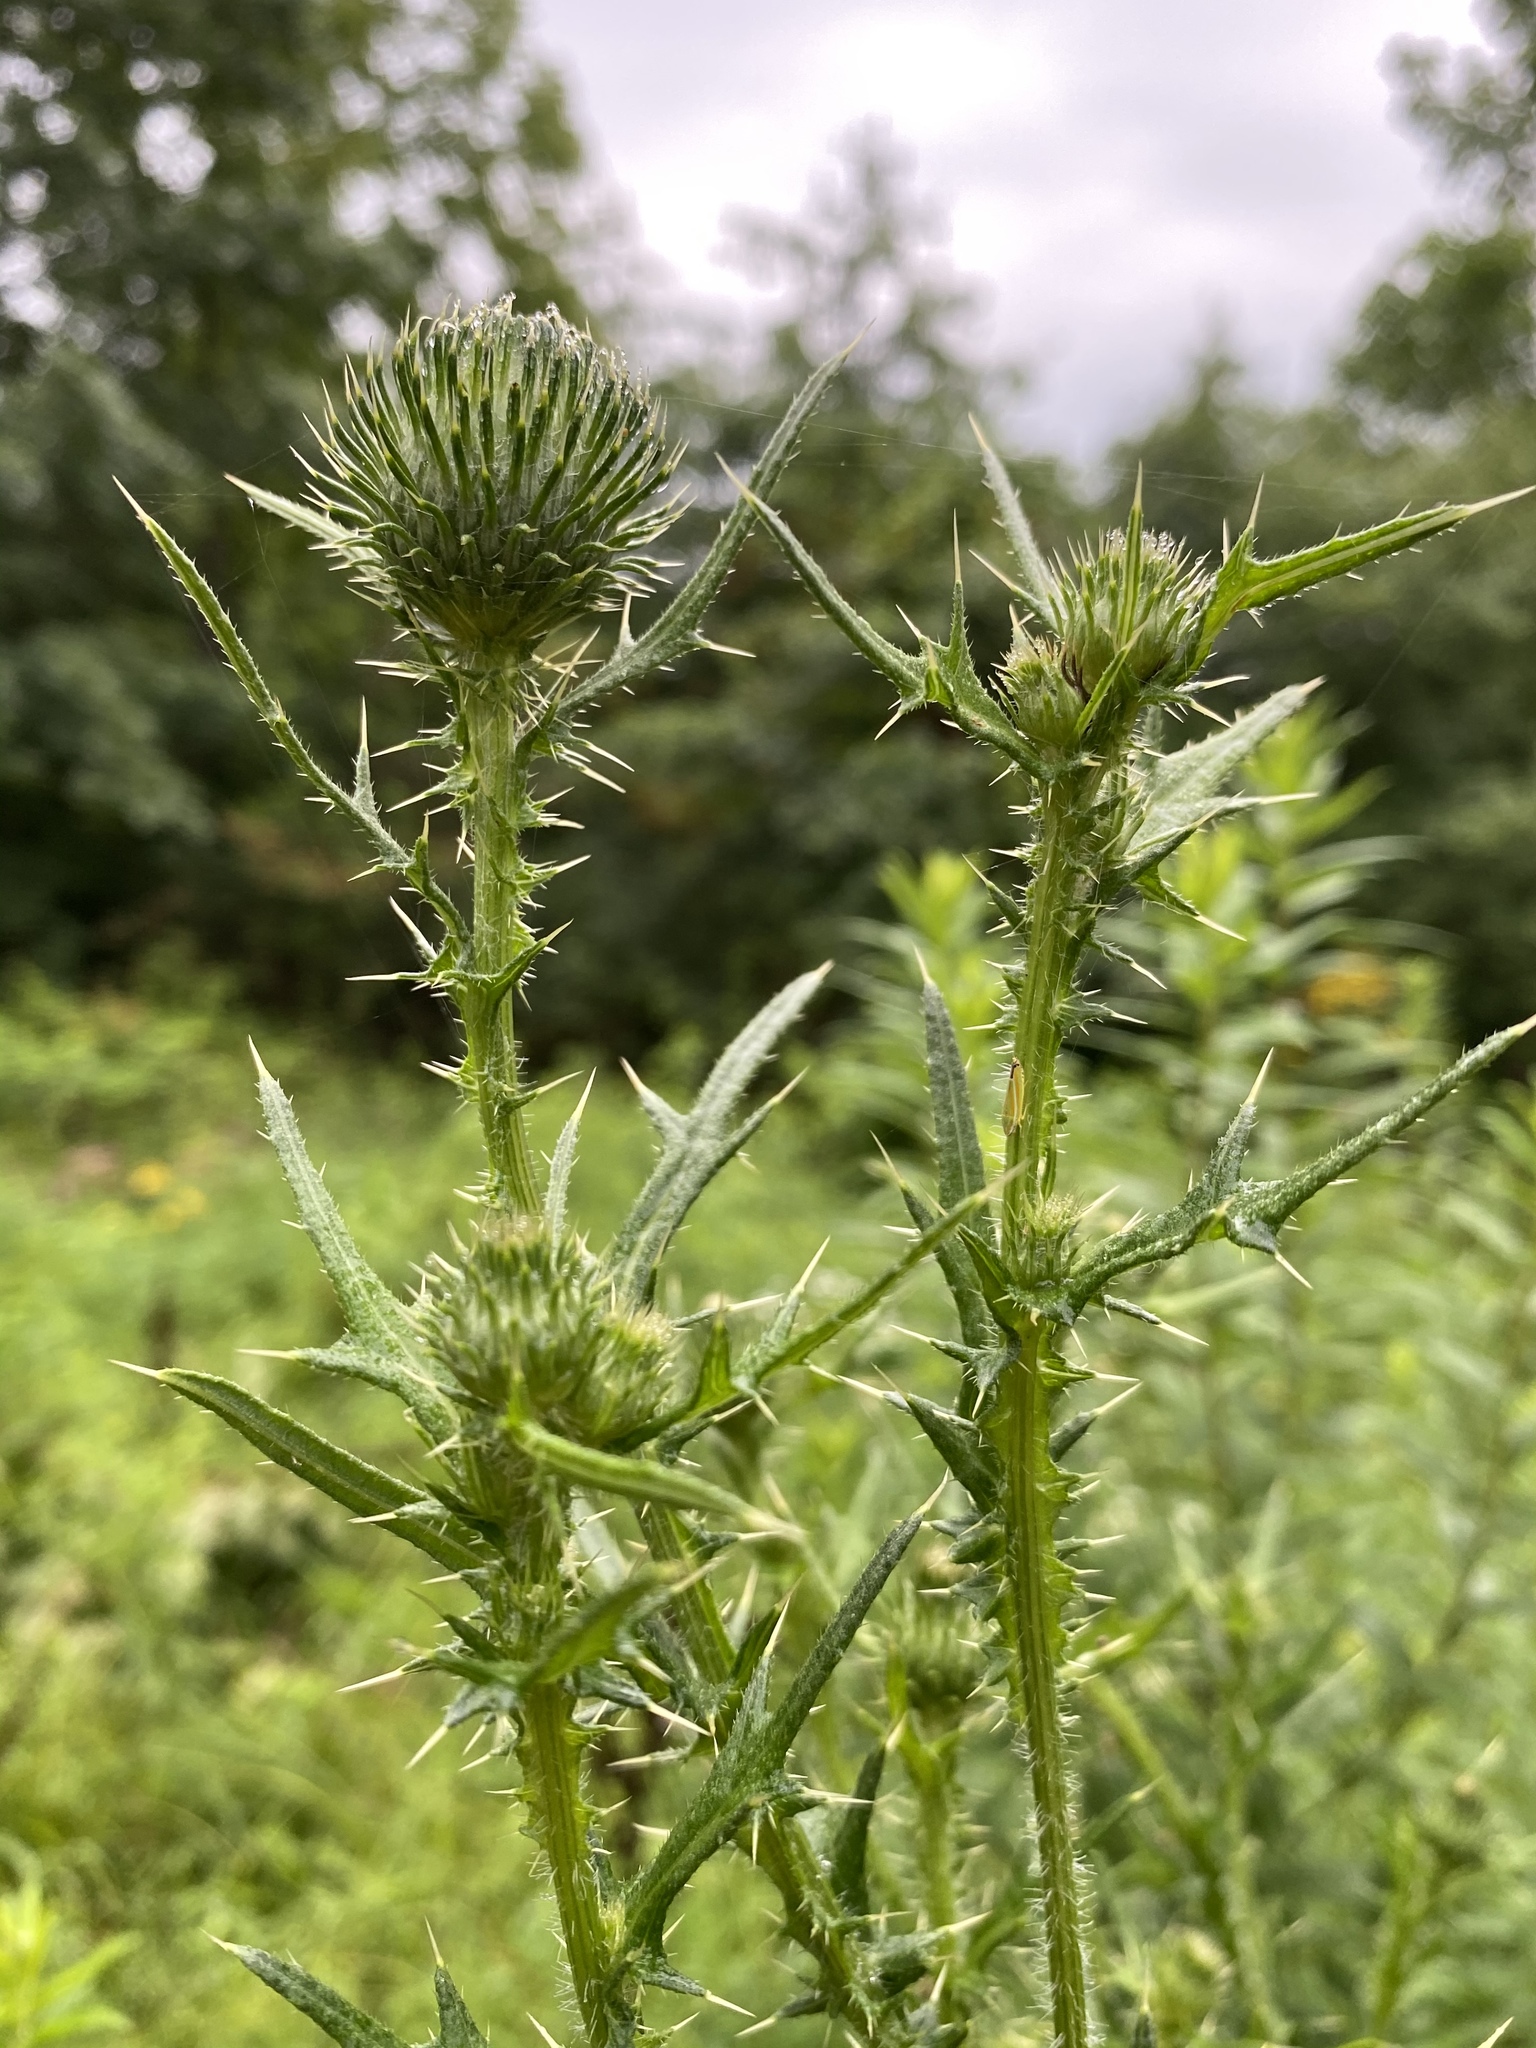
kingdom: Plantae
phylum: Tracheophyta
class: Magnoliopsida
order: Asterales
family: Asteraceae
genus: Cirsium
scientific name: Cirsium vulgare
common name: Bull thistle
